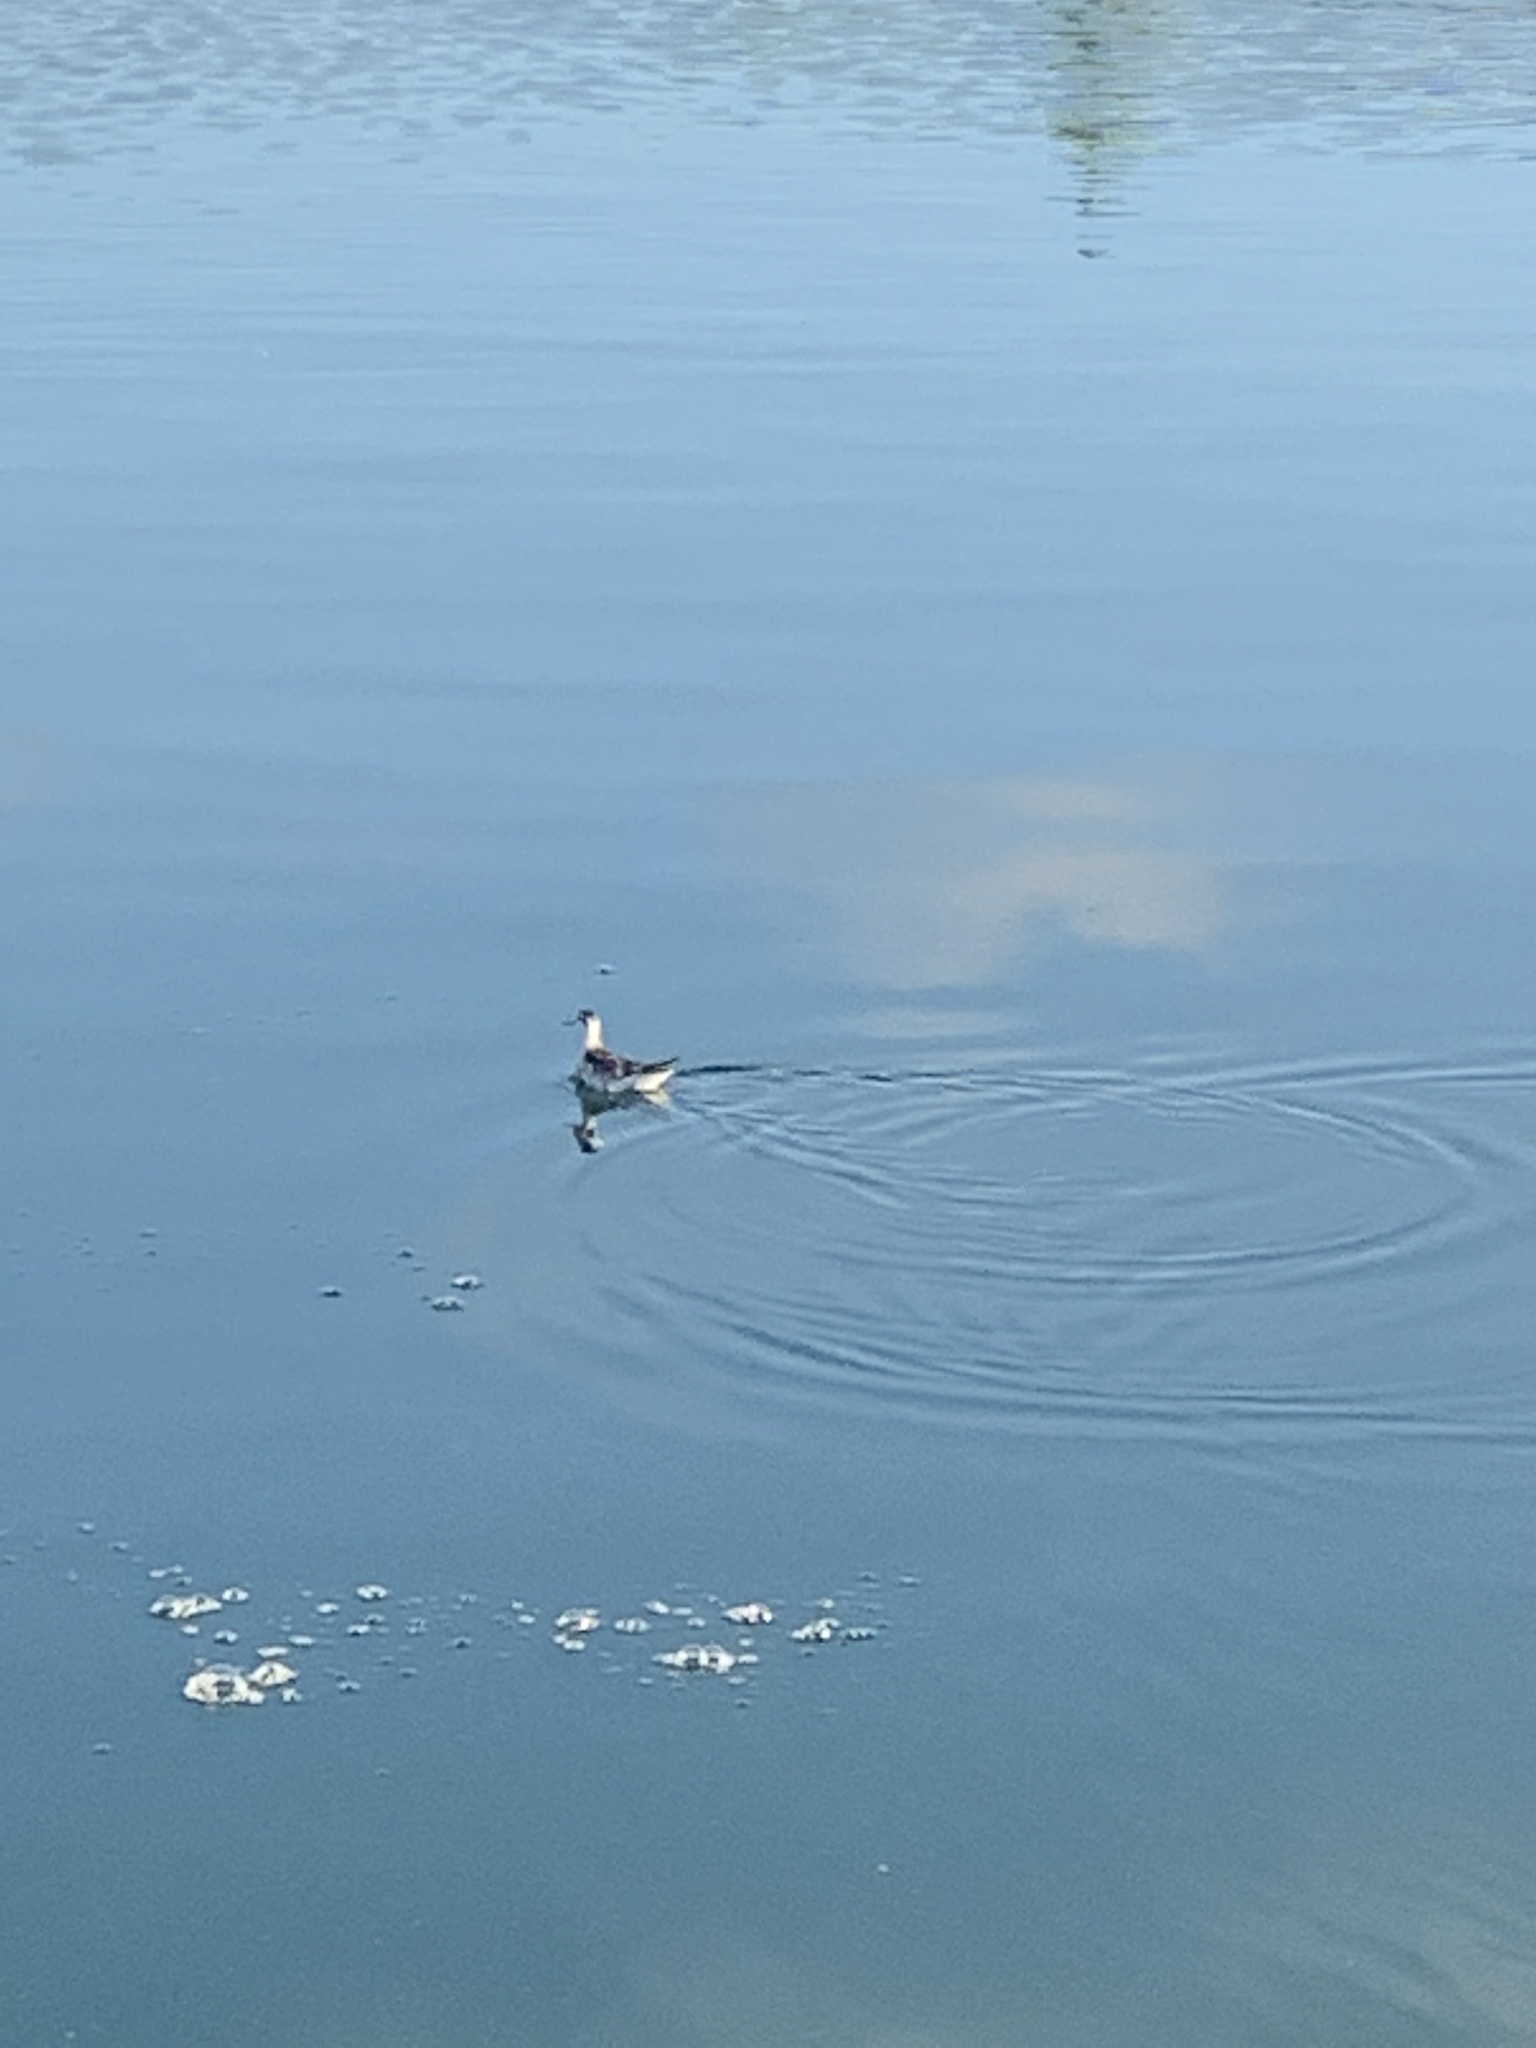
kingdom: Animalia
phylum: Chordata
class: Aves
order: Charadriiformes
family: Scolopacidae
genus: Phalaropus
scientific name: Phalaropus tricolor
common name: Wilson's phalarope
